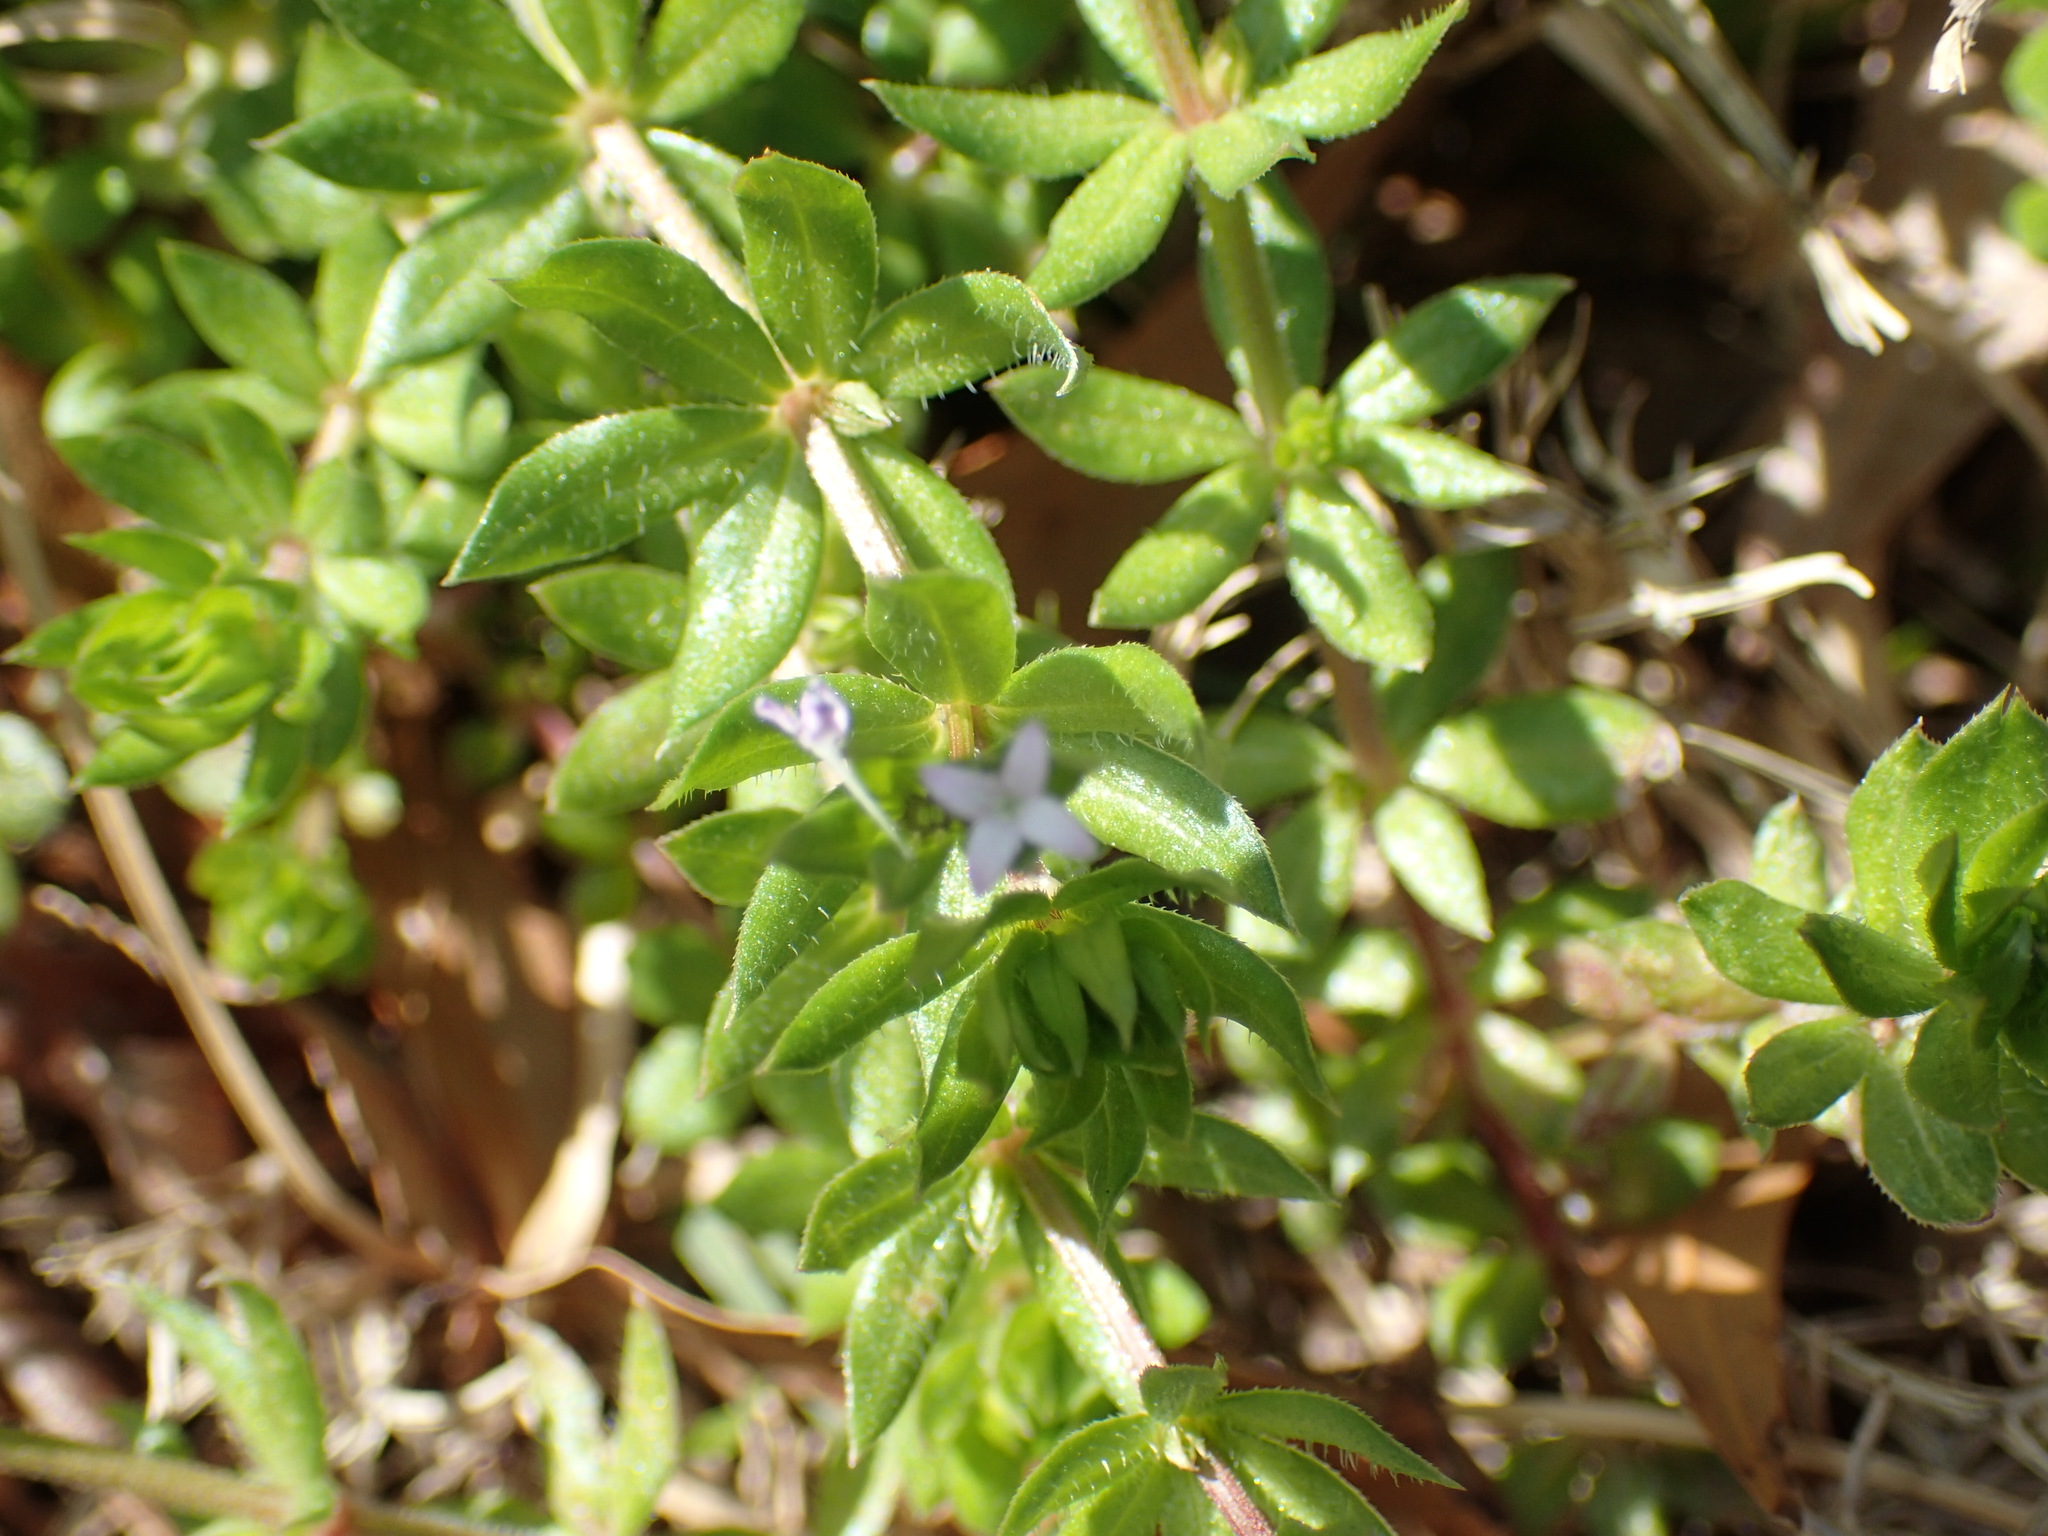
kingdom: Plantae
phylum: Tracheophyta
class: Magnoliopsida
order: Gentianales
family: Rubiaceae
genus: Sherardia
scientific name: Sherardia arvensis
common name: Field madder
